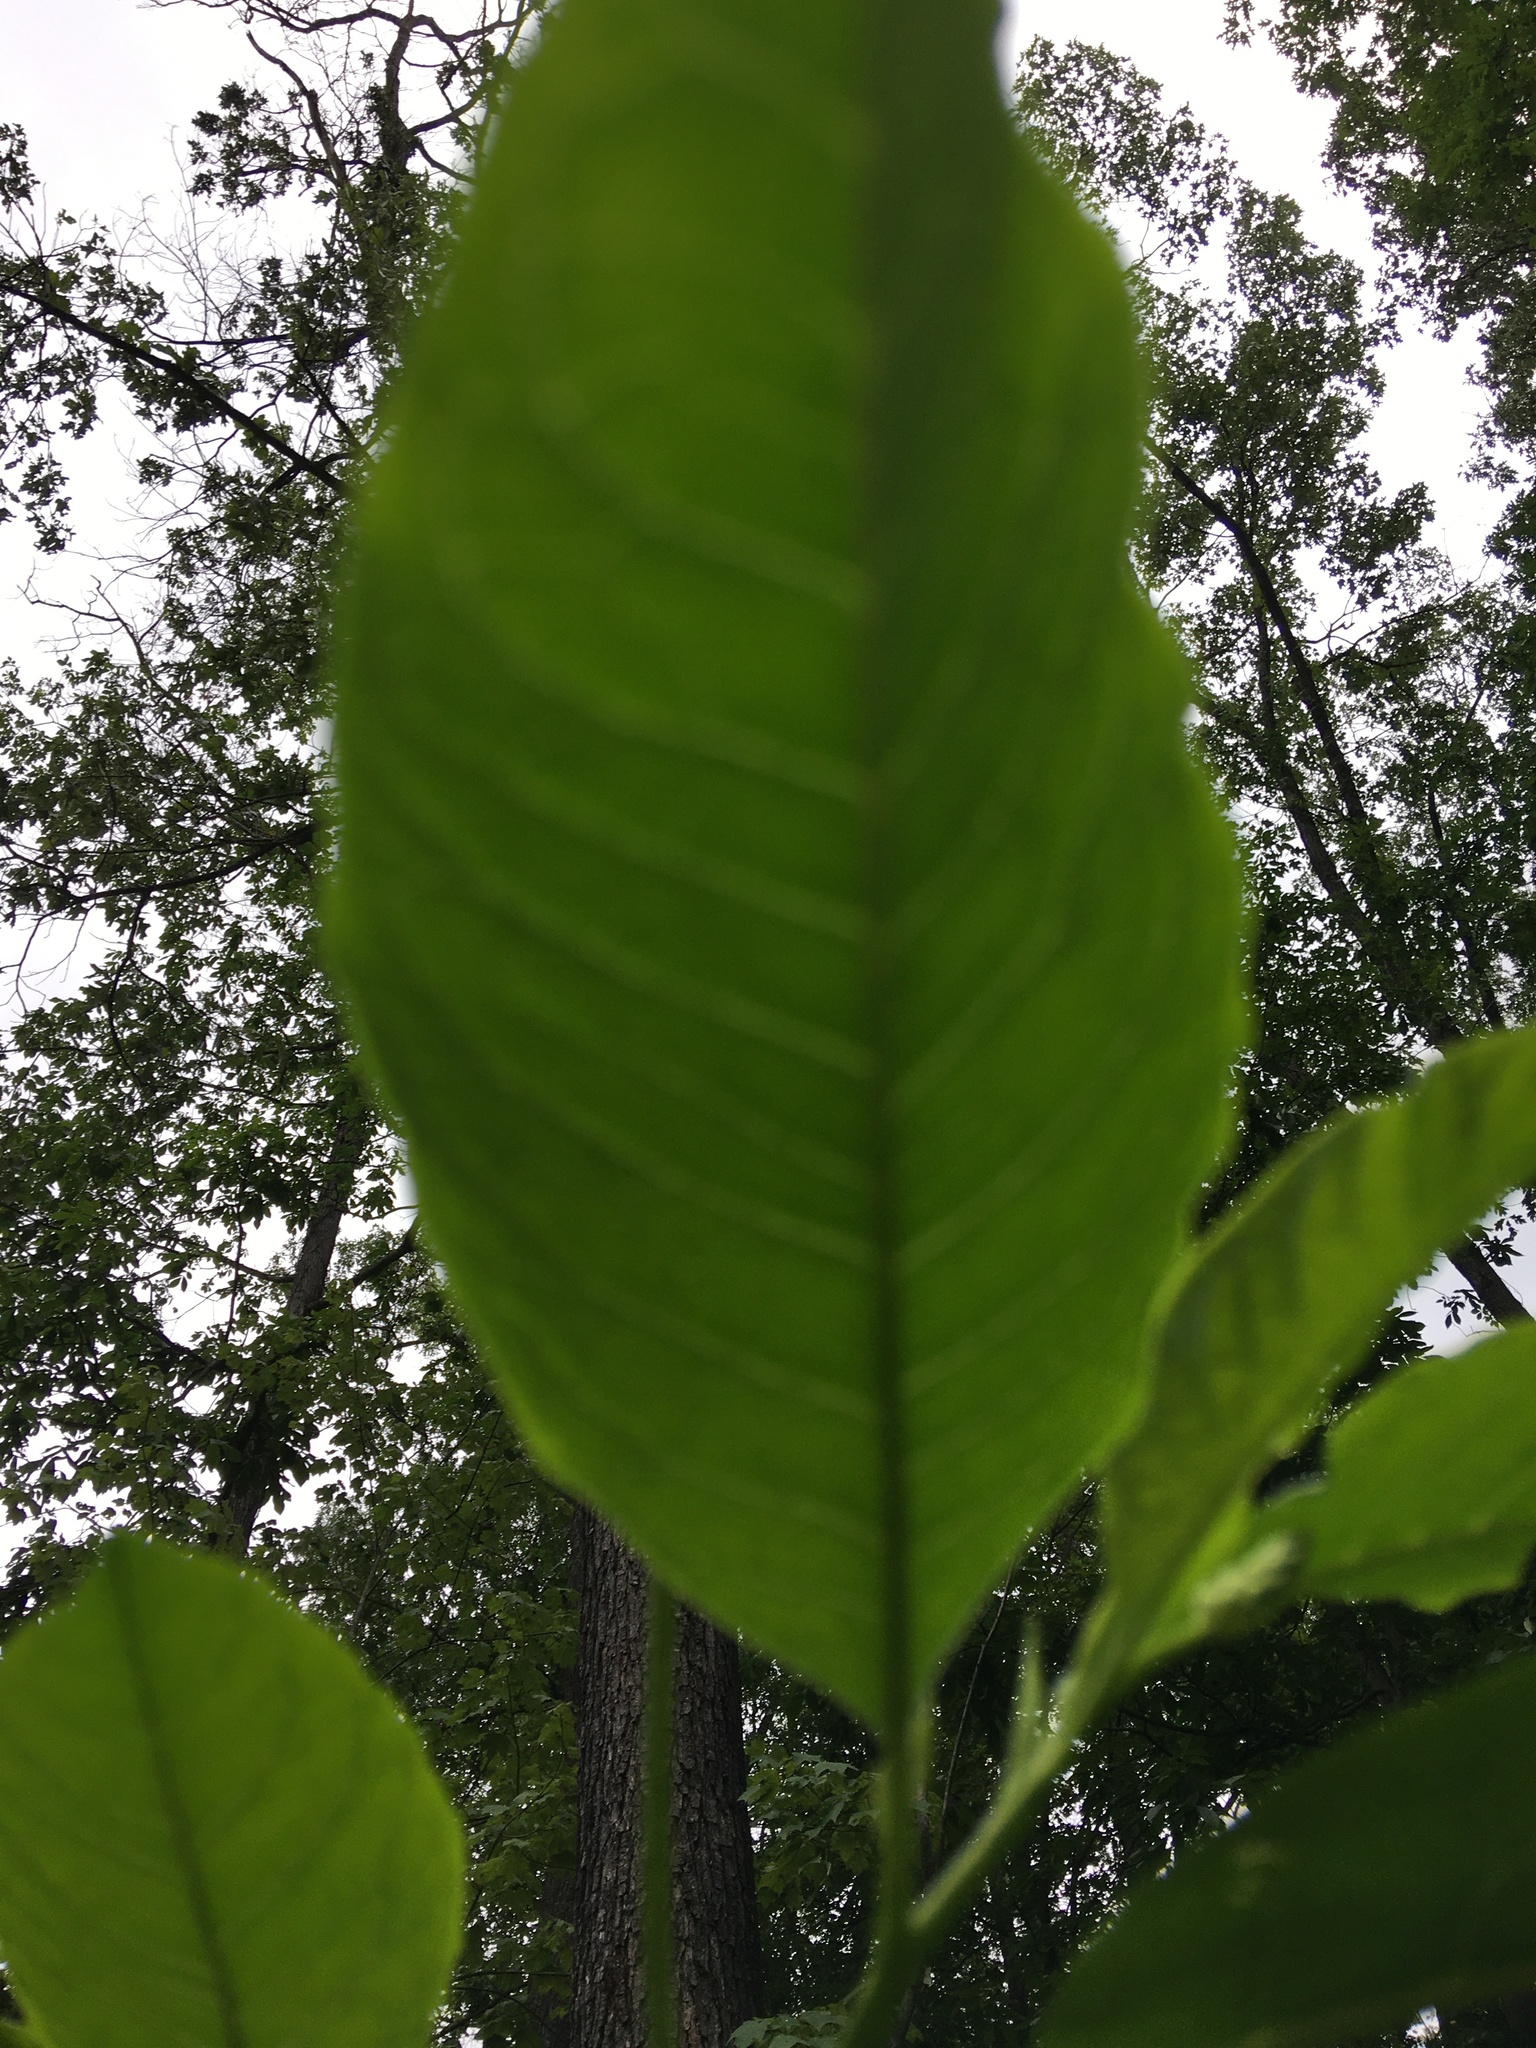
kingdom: Plantae
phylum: Tracheophyta
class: Magnoliopsida
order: Caryophyllales
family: Phytolaccaceae
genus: Phytolacca
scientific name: Phytolacca americana
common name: American pokeweed
